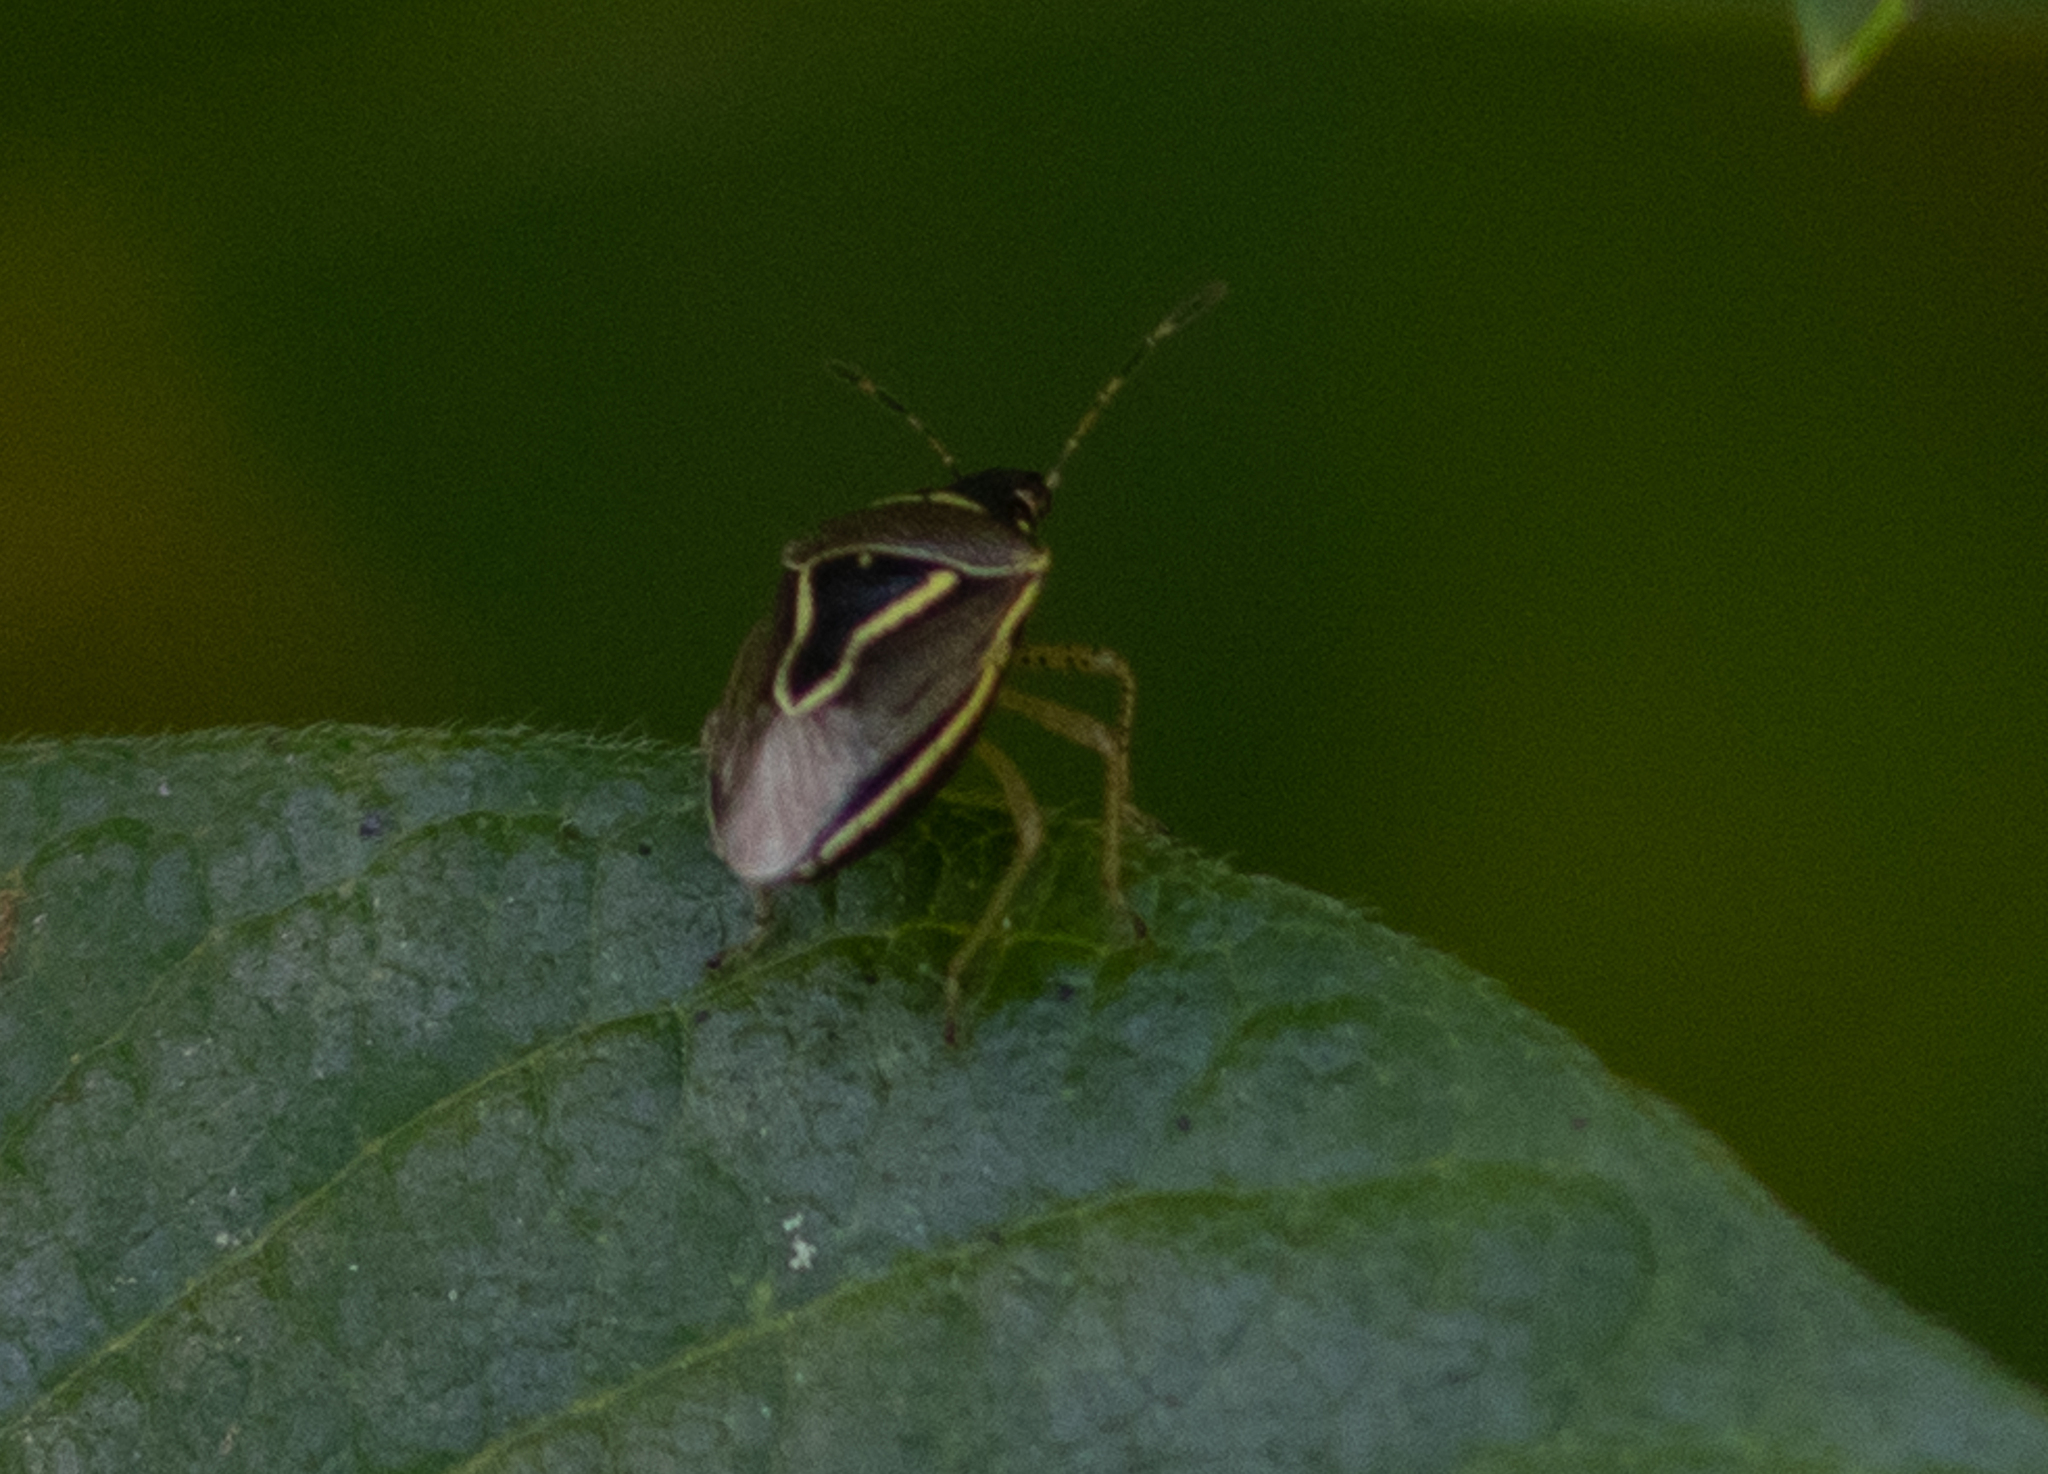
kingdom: Animalia
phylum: Arthropoda
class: Insecta
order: Hemiptera
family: Pentatomidae
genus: Mormidea
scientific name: Mormidea lugens
